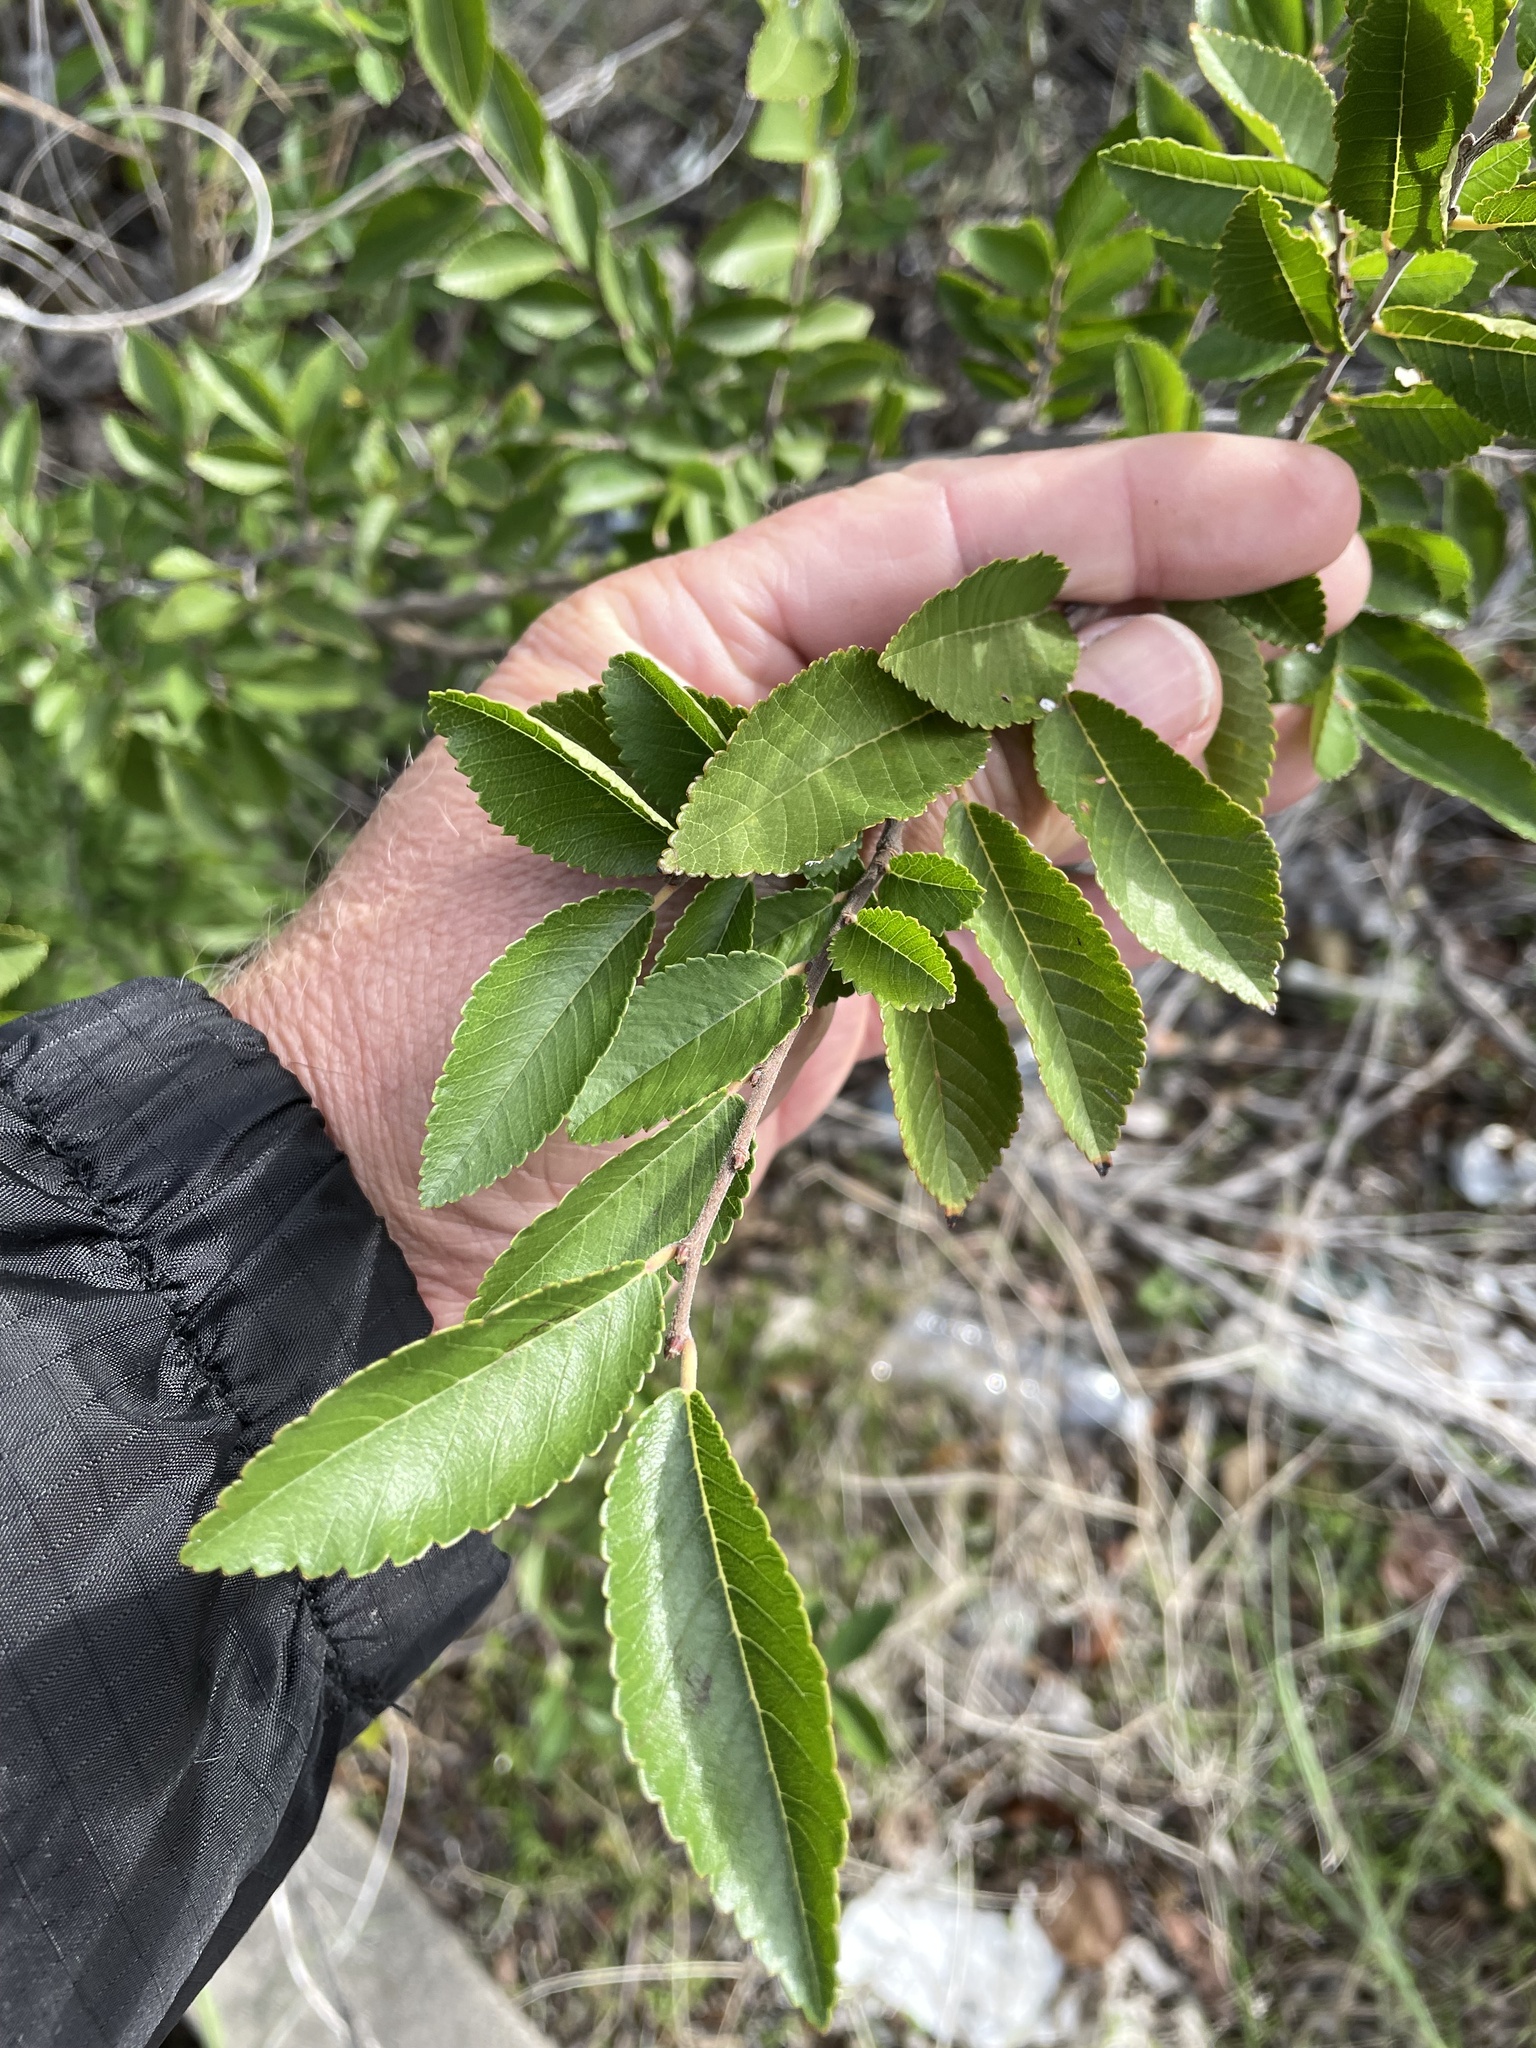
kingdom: Plantae
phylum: Tracheophyta
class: Magnoliopsida
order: Rosales
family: Ulmaceae
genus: Ulmus
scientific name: Ulmus parvifolia
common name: Chinese elm
